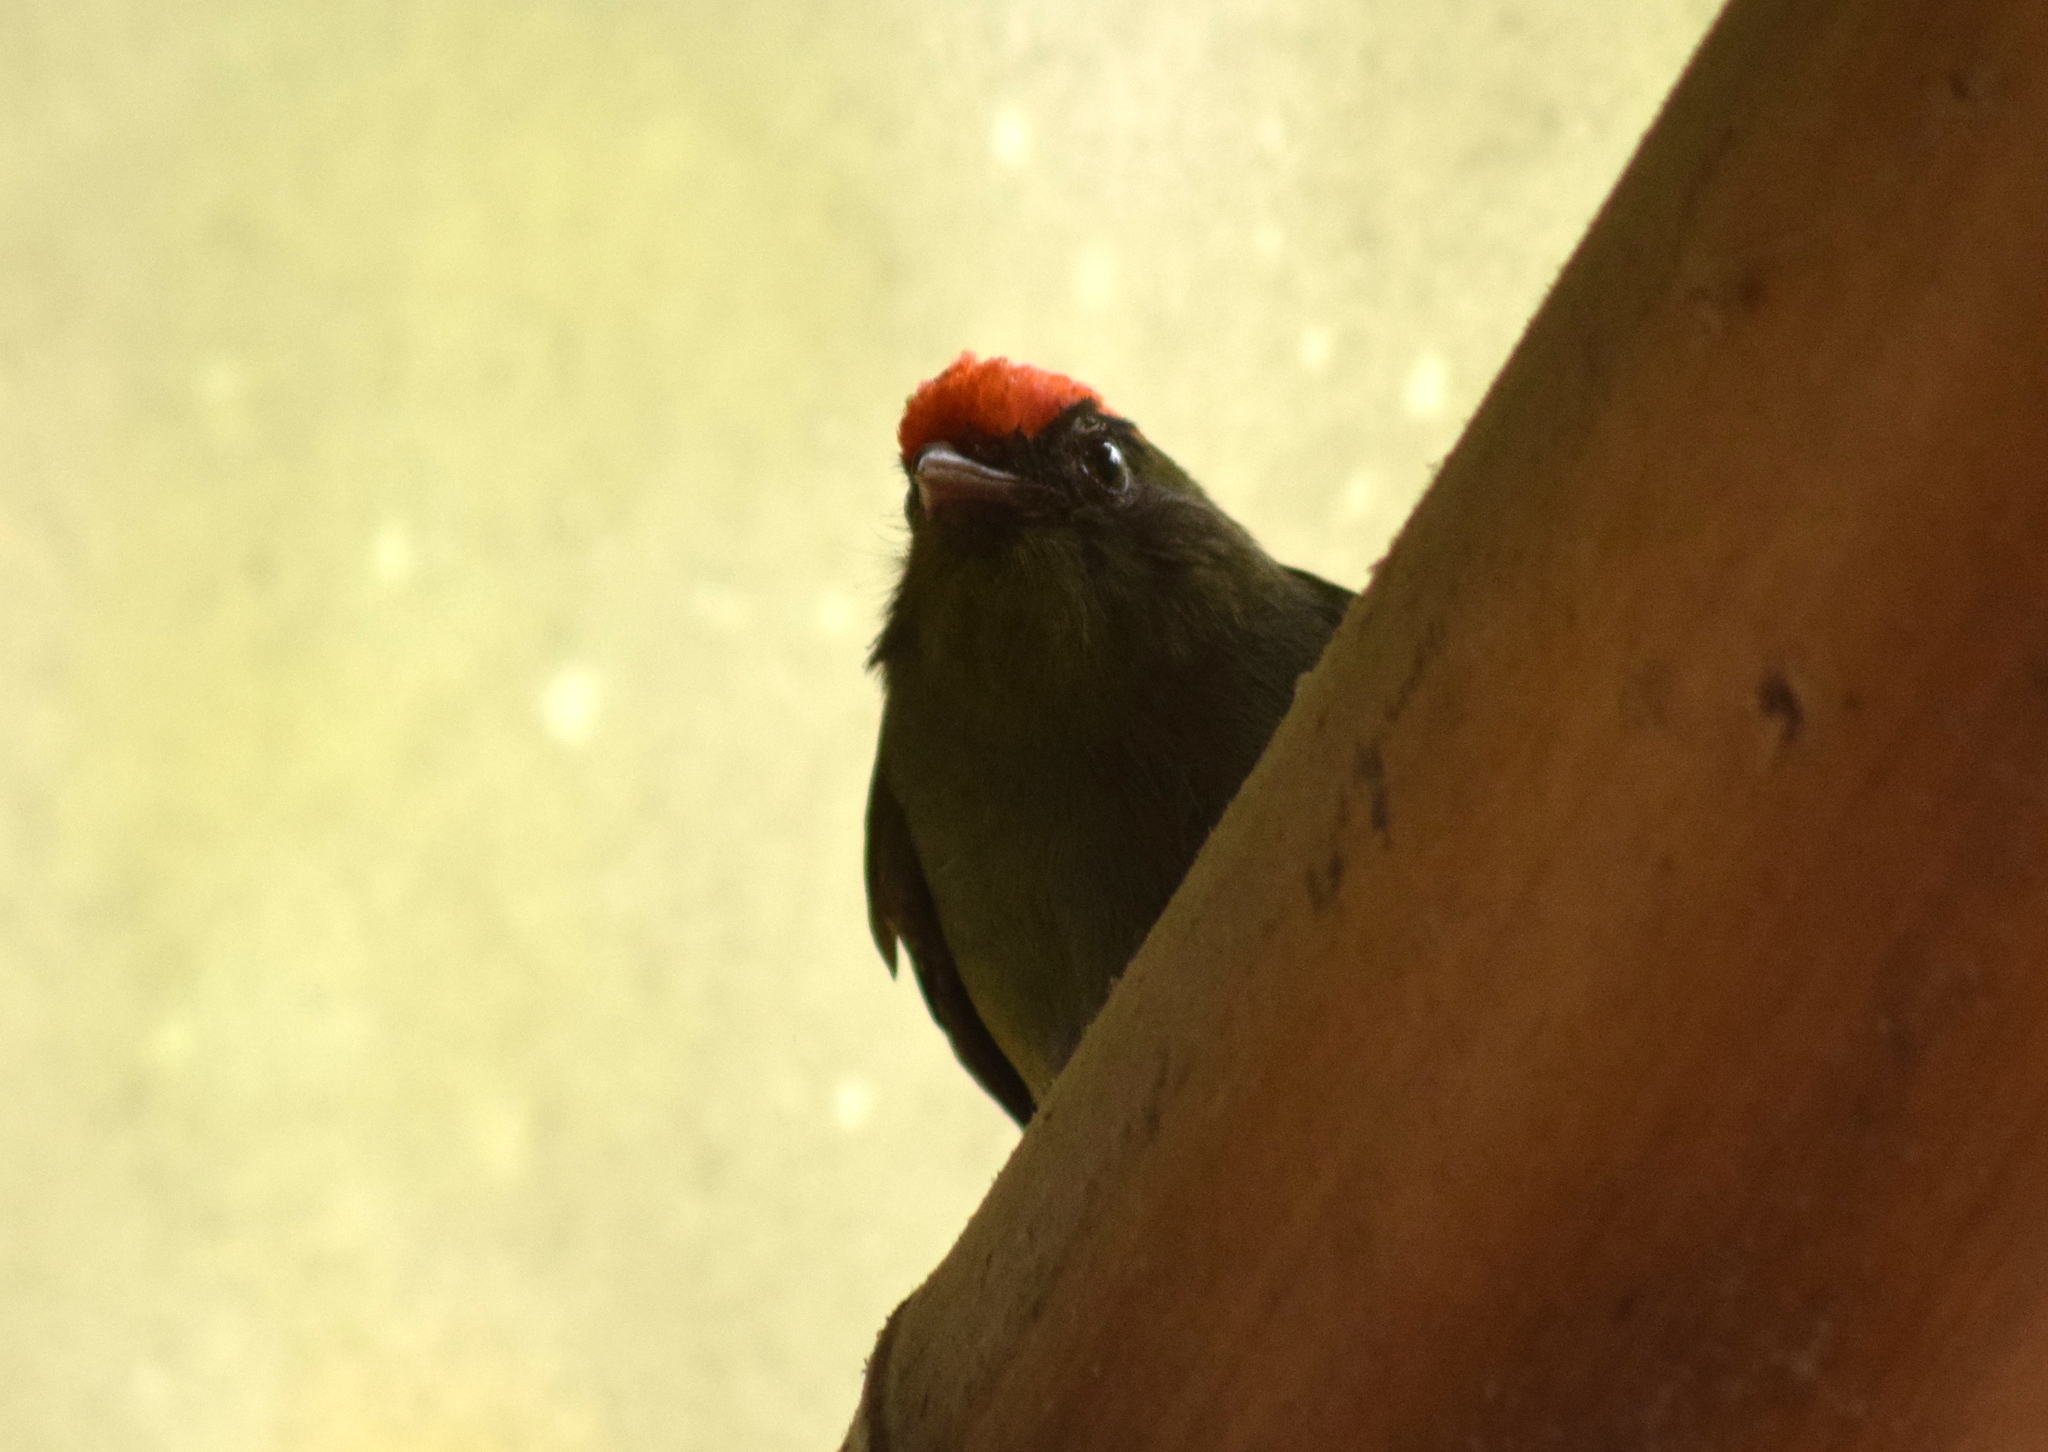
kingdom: Animalia
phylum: Chordata
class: Aves
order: Passeriformes
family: Pipridae
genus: Chiroxiphia
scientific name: Chiroxiphia caudata
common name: Blue manakin
